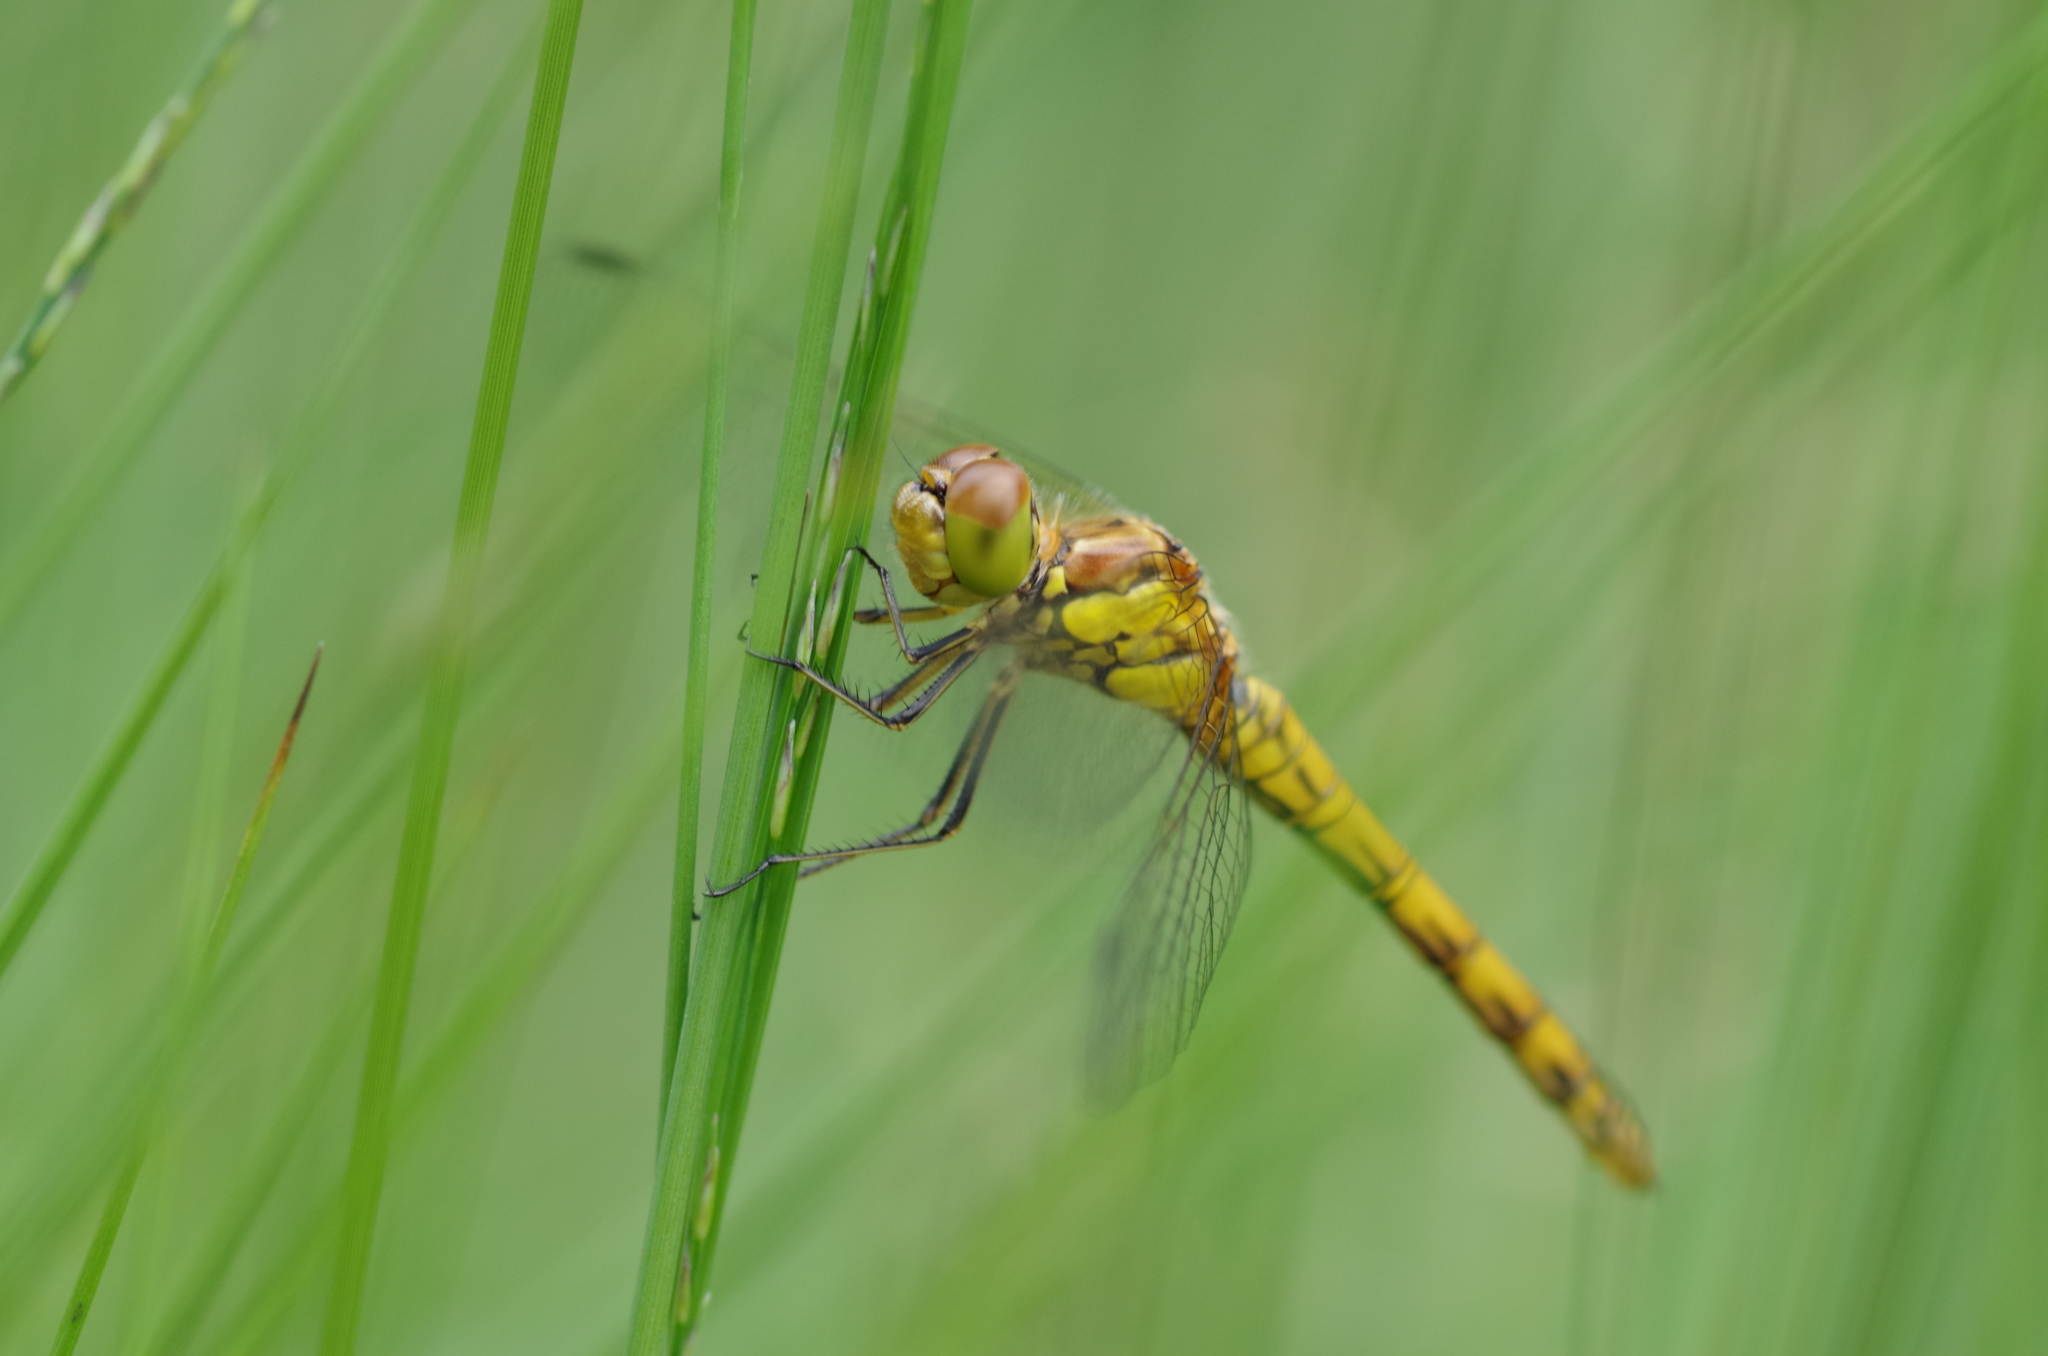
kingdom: Animalia
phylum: Arthropoda
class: Insecta
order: Odonata
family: Libellulidae
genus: Sympetrum
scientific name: Sympetrum striolatum
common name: Common darter
